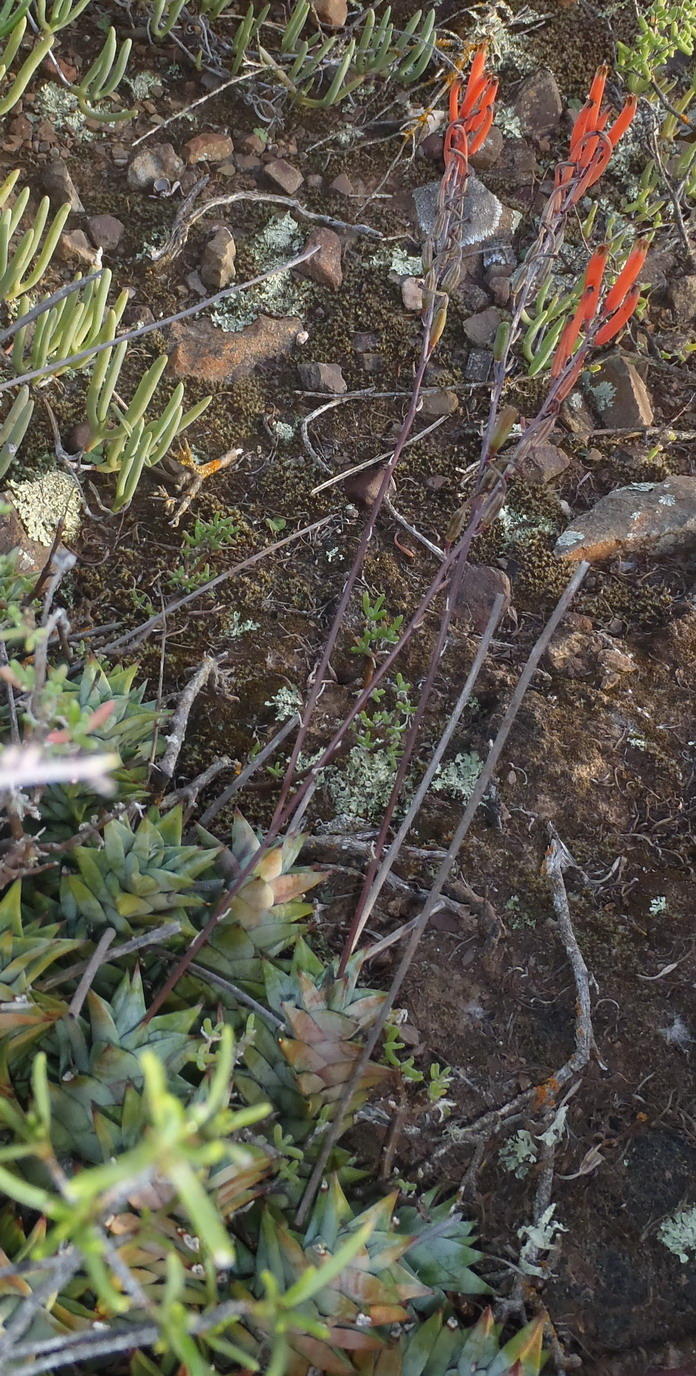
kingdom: Plantae
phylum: Tracheophyta
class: Liliopsida
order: Asparagales
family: Asphodelaceae
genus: Astroloba
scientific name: Astroloba rubriflora
